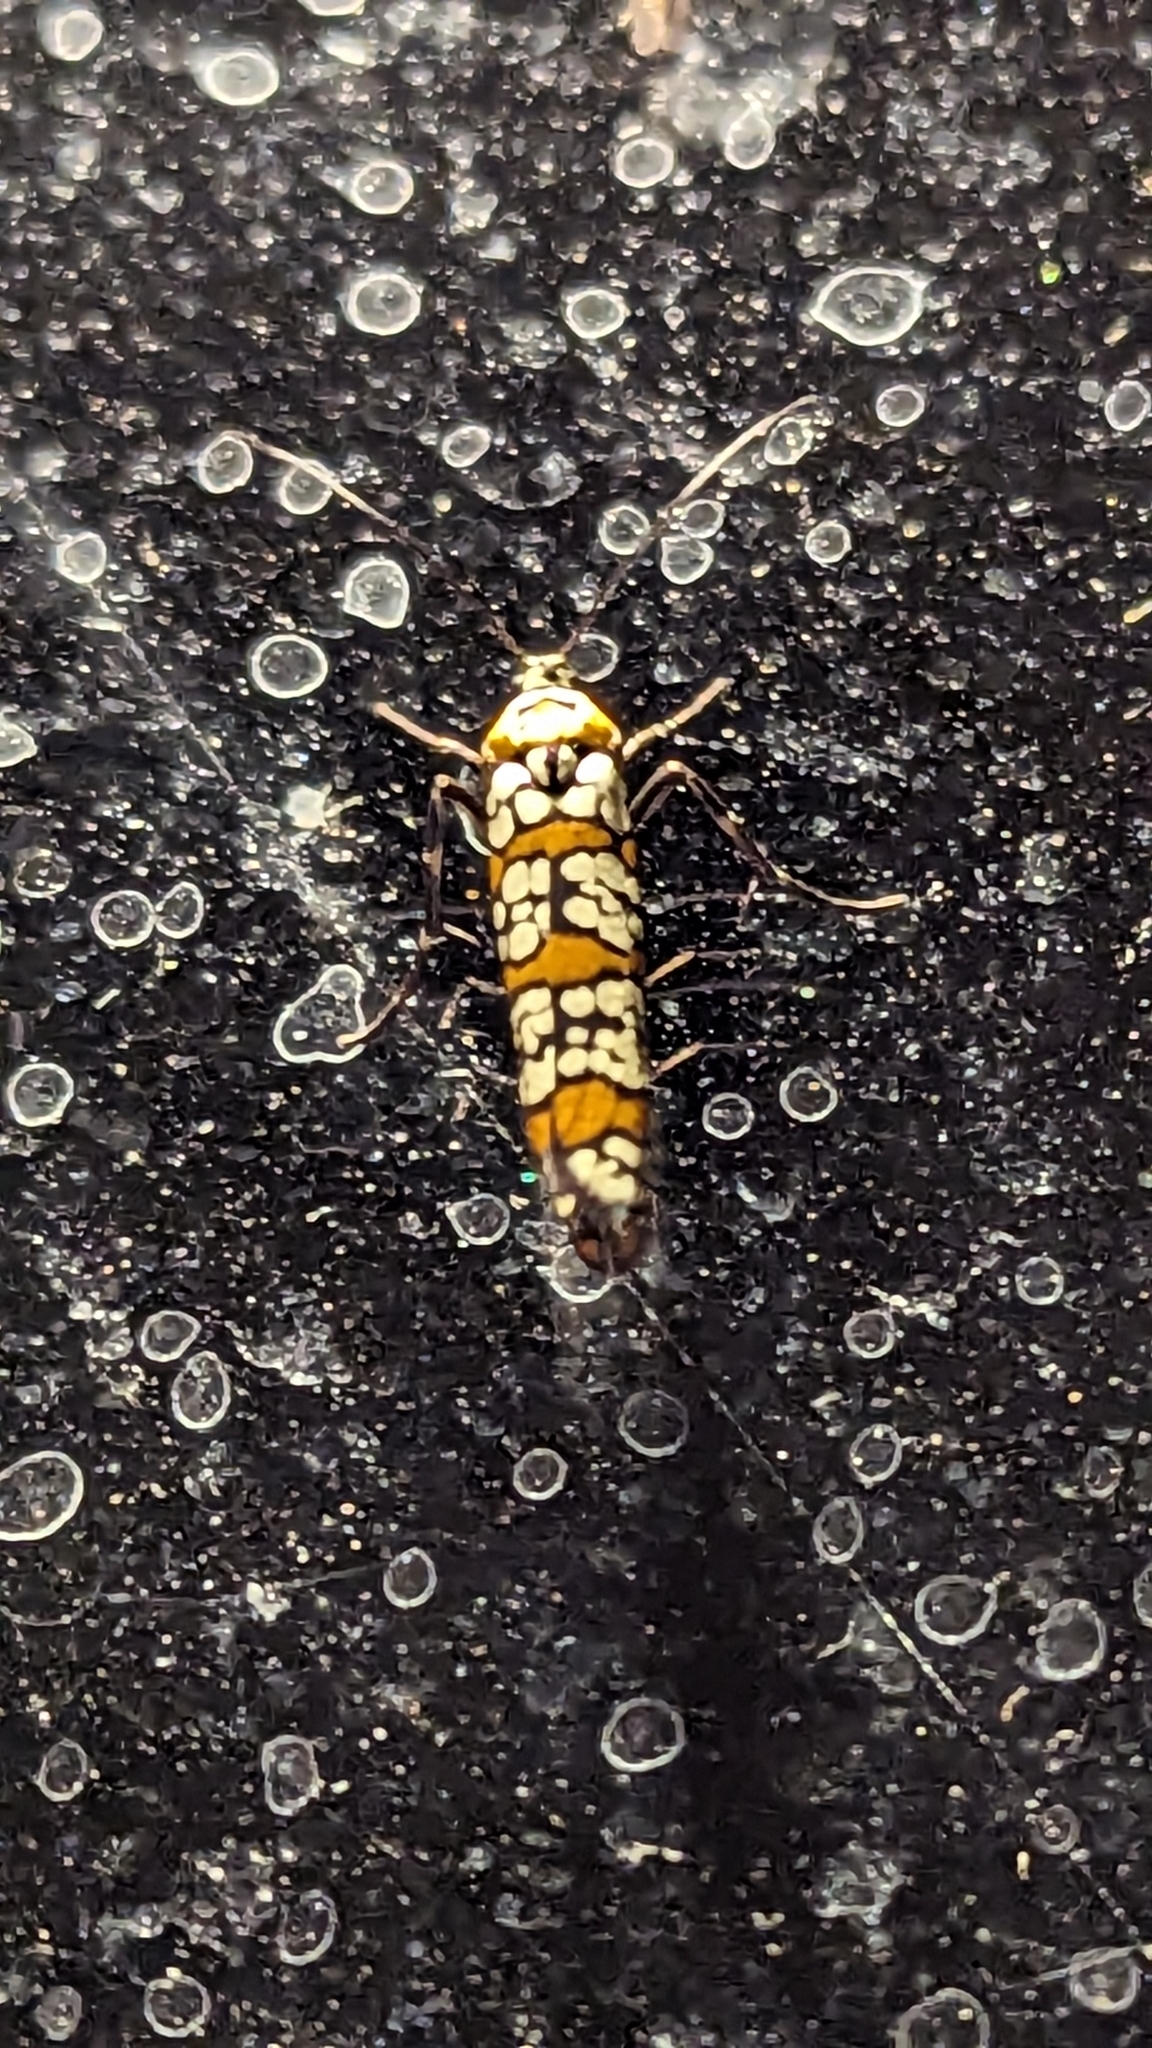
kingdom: Animalia
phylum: Arthropoda
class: Insecta
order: Lepidoptera
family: Attevidae
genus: Atteva
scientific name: Atteva punctella
